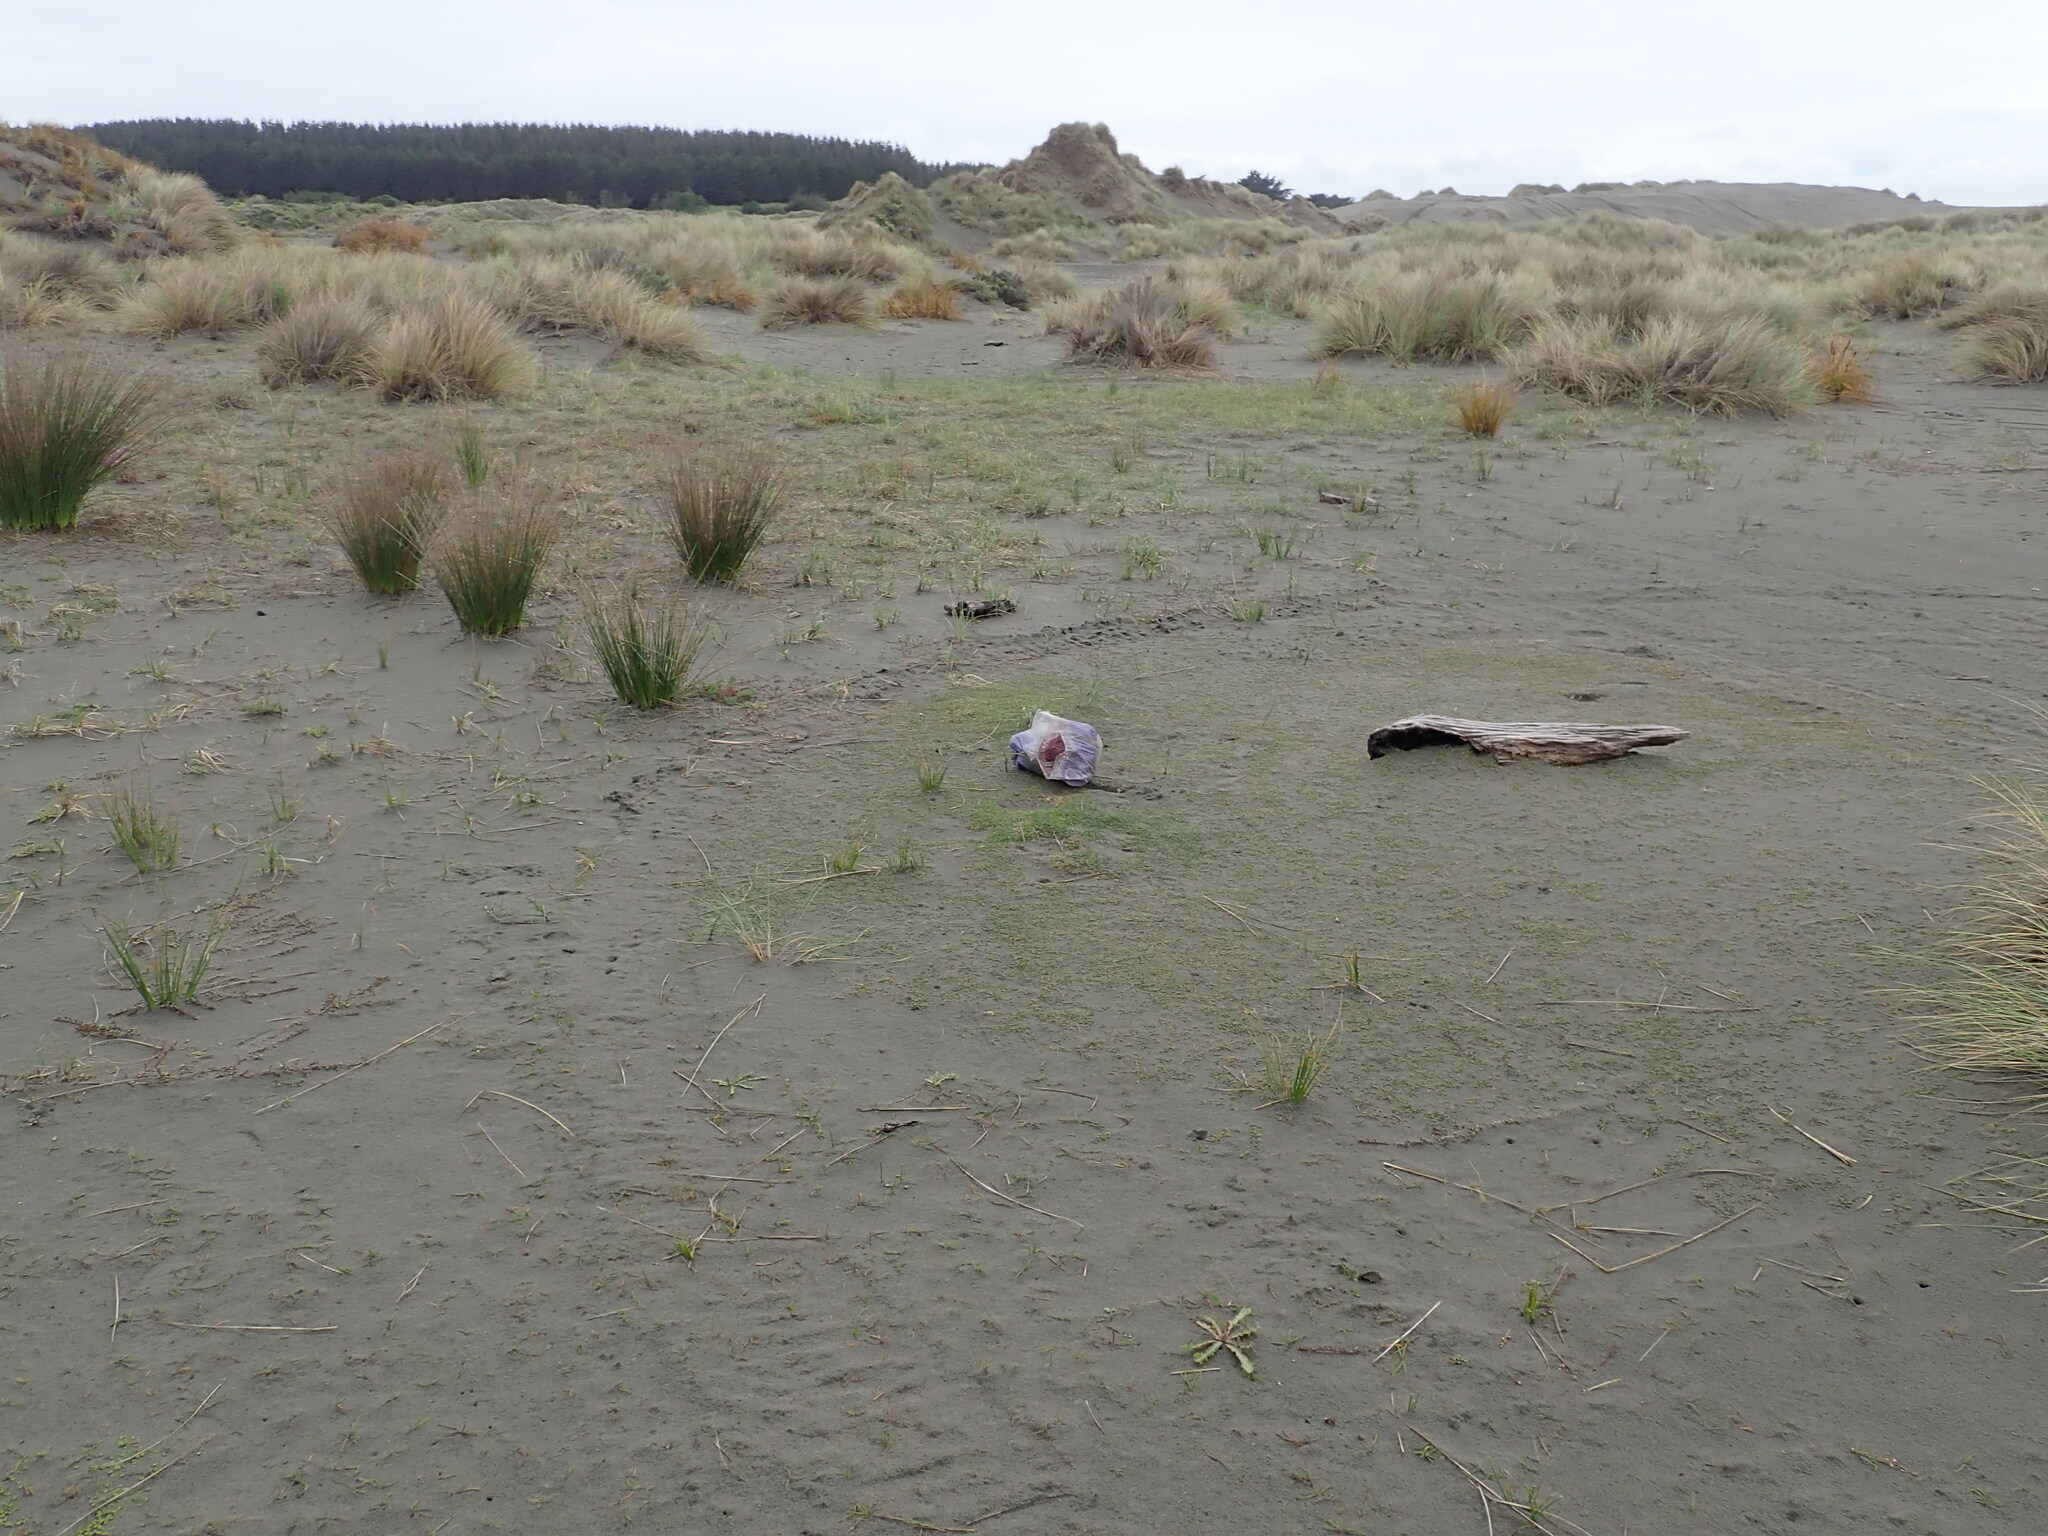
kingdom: Plantae
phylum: Tracheophyta
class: Magnoliopsida
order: Apiales
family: Apiaceae
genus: Lilaeopsis
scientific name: Lilaeopsis novae-zelandiae
